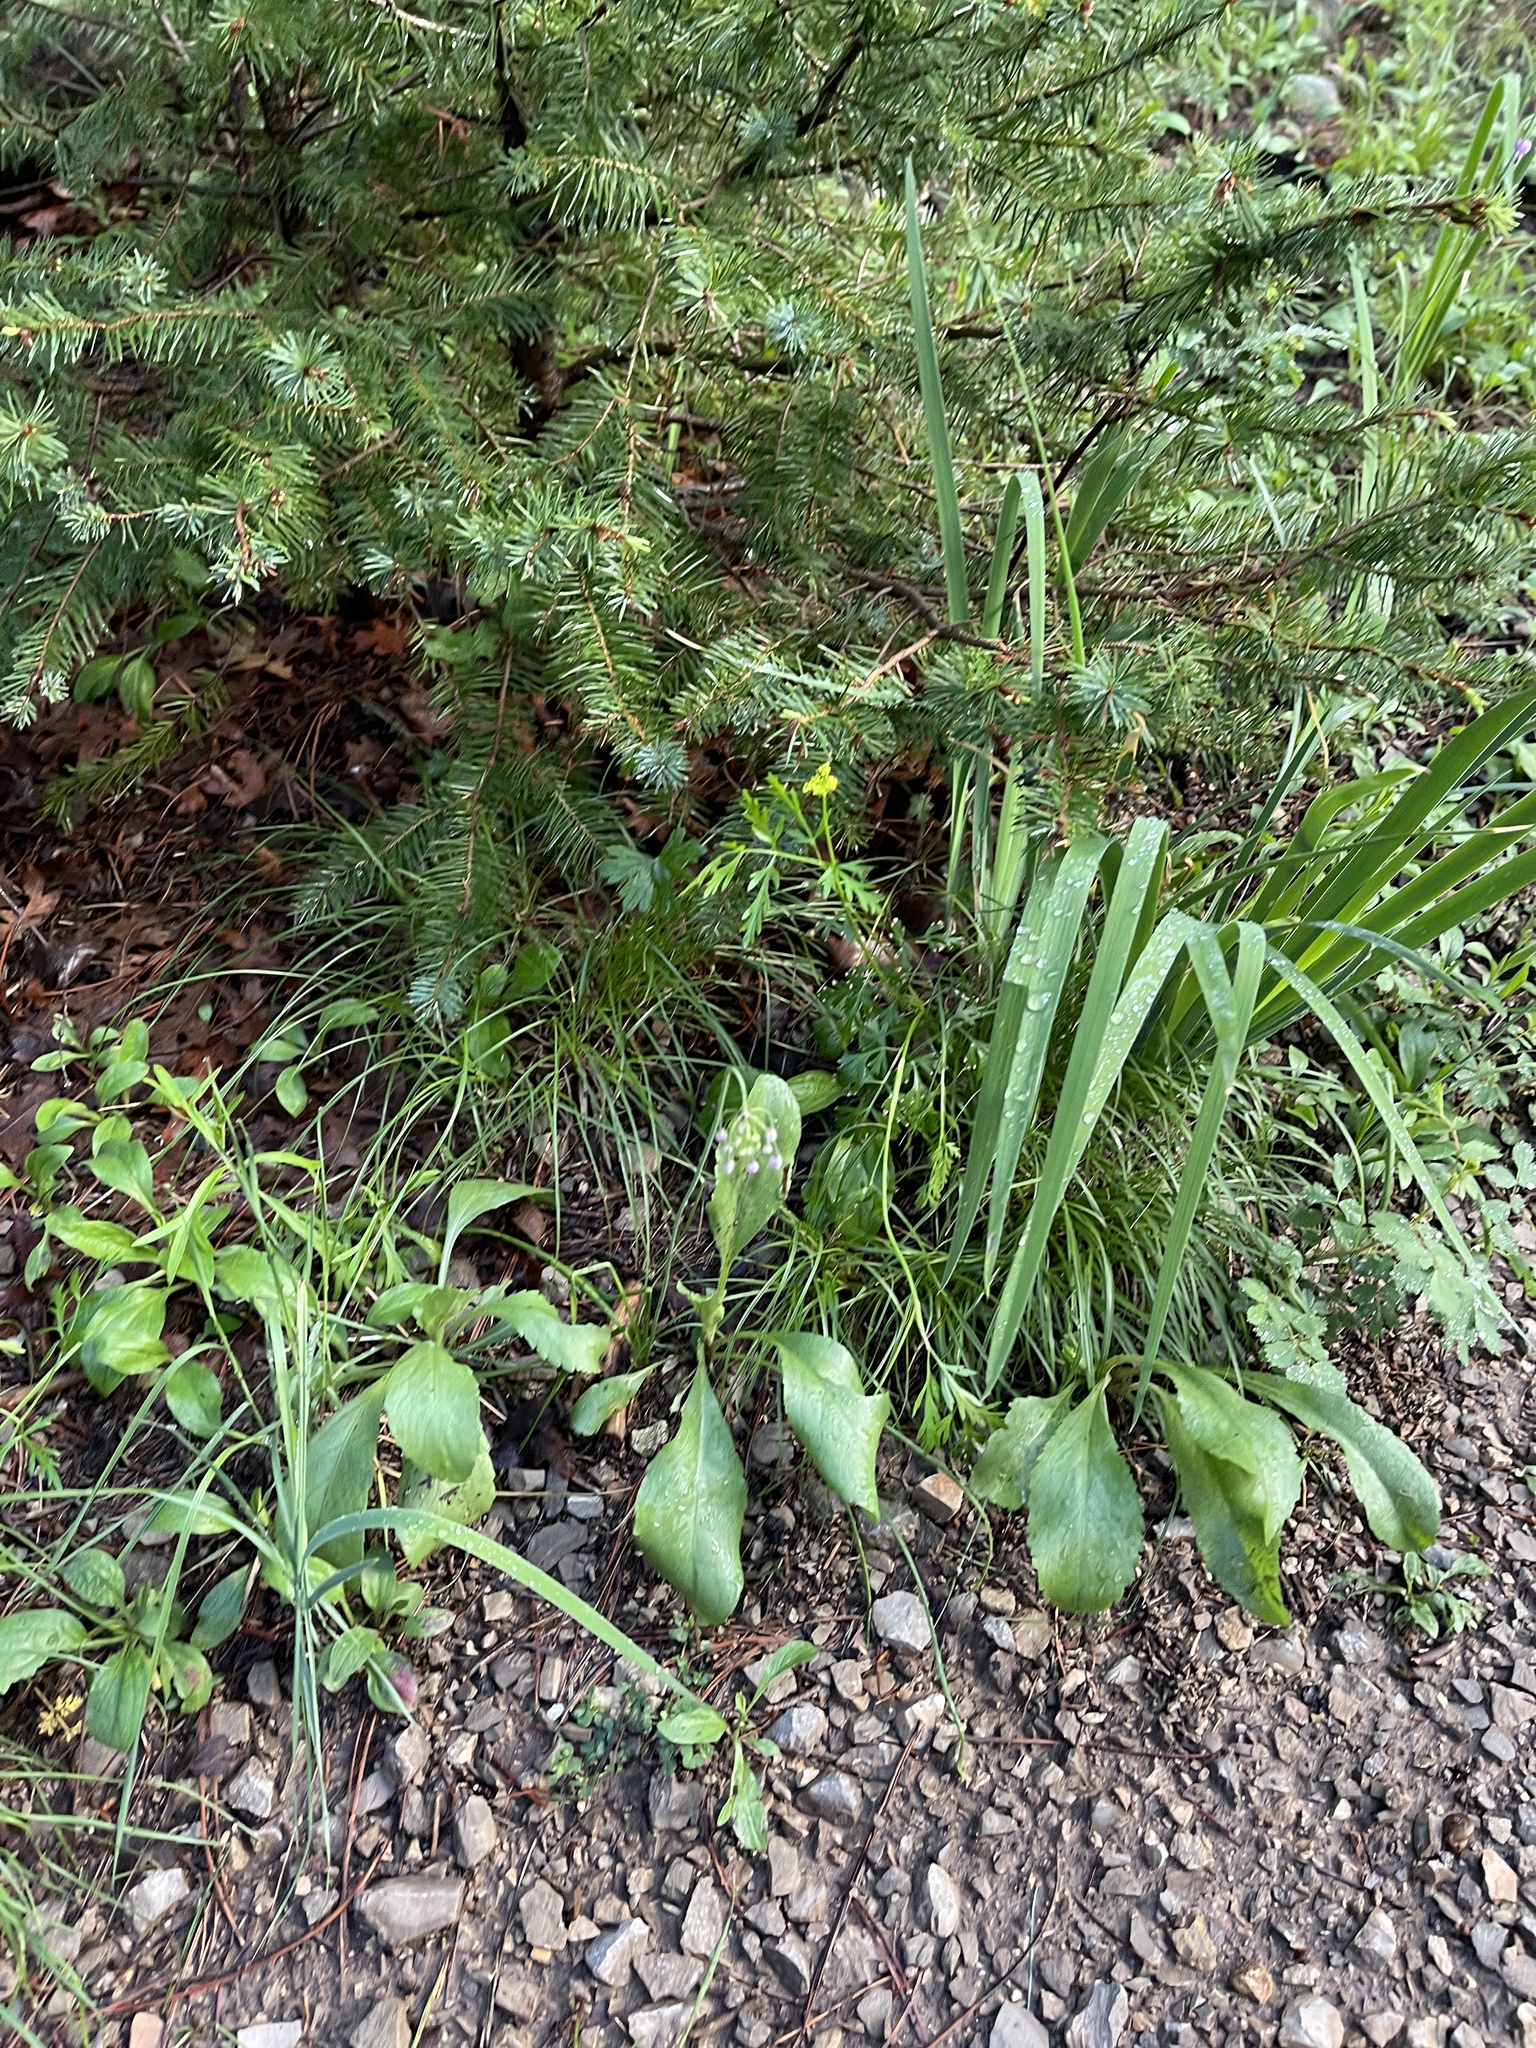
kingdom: Plantae
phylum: Tracheophyta
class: Liliopsida
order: Asparagales
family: Amaryllidaceae
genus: Allium
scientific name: Allium cernuum
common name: Nodding onion
